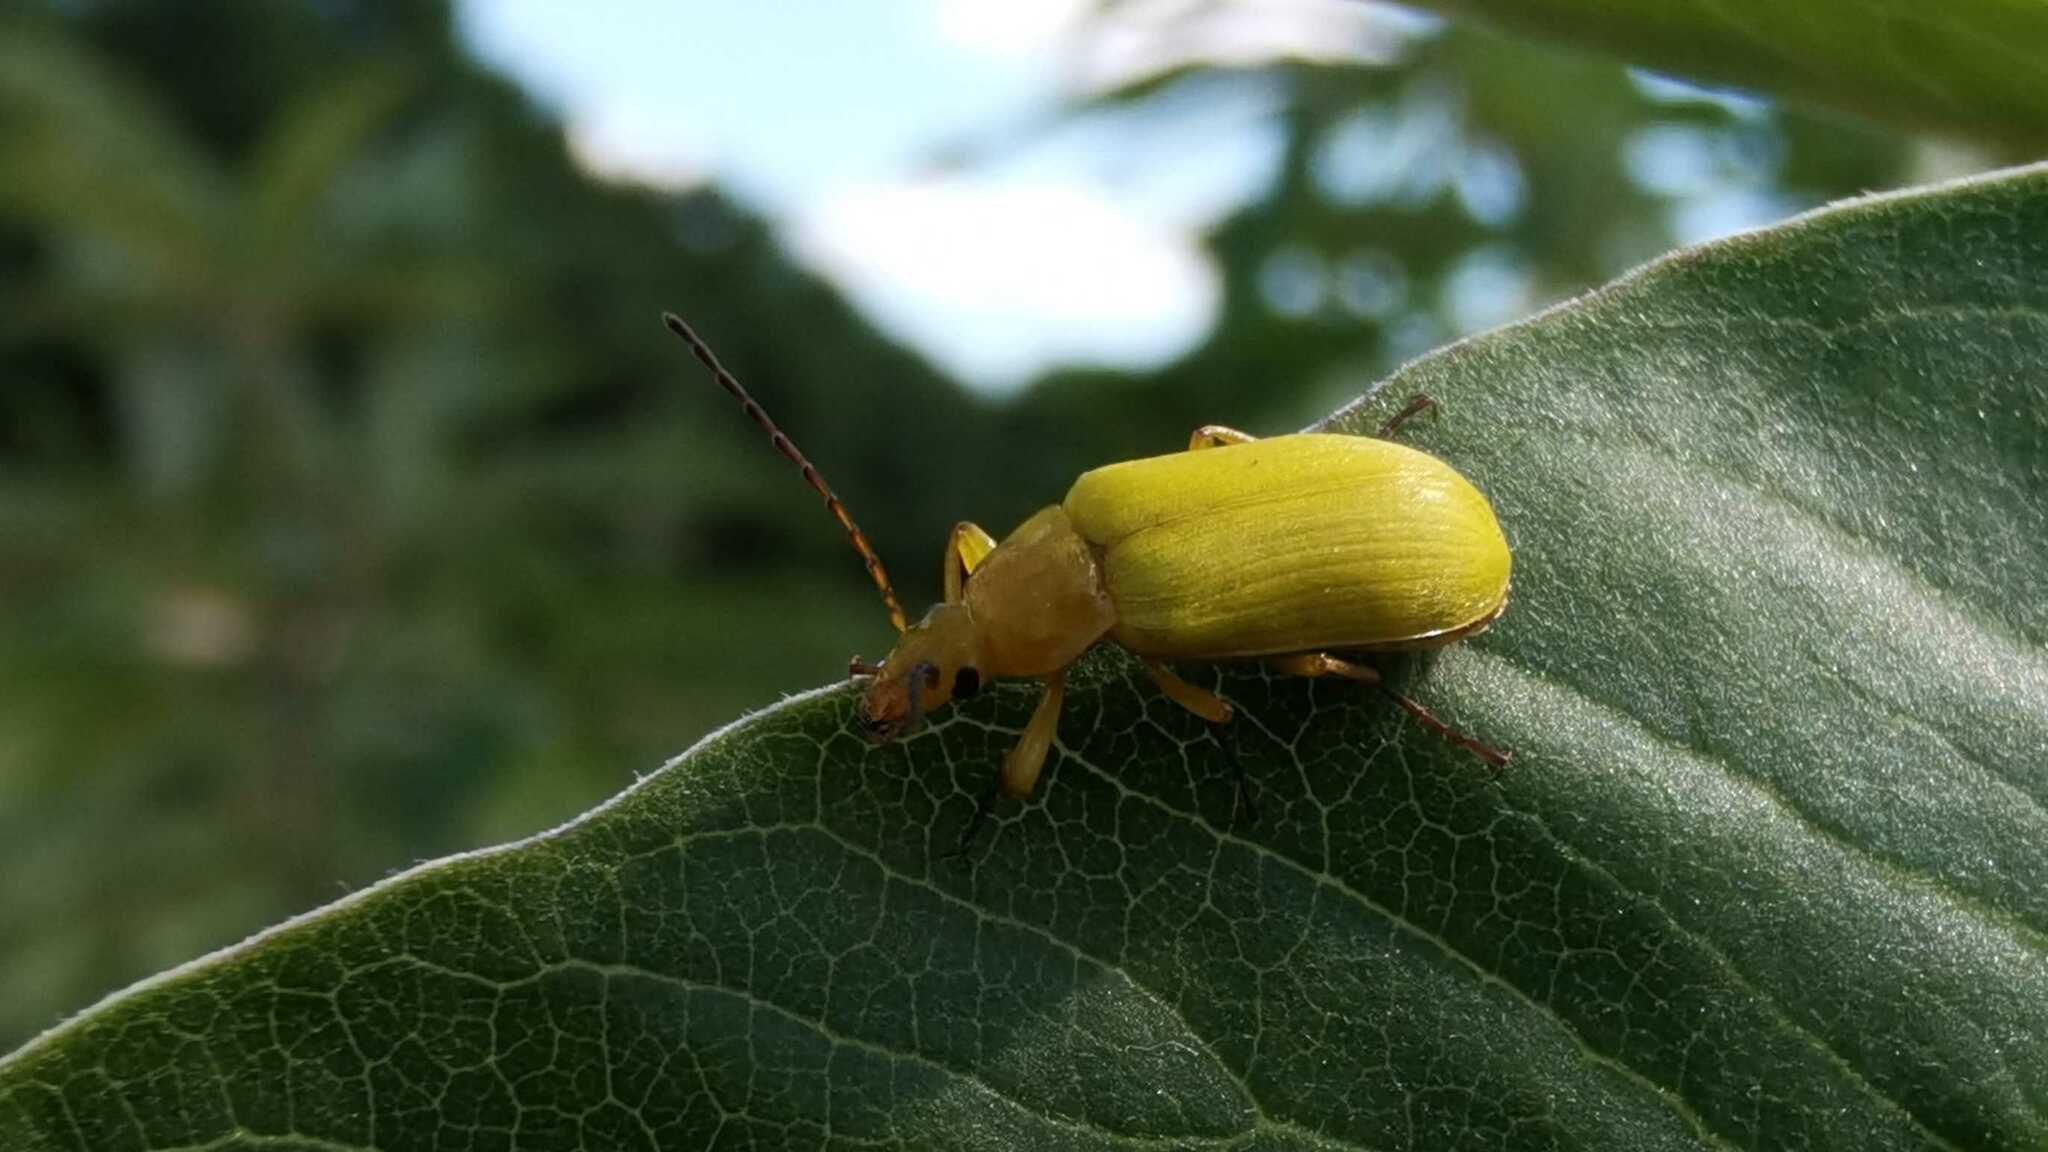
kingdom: Animalia
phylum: Arthropoda
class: Insecta
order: Coleoptera
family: Tenebrionidae
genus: Cteniopus
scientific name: Cteniopus sulphureus
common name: Sulphur beetle
